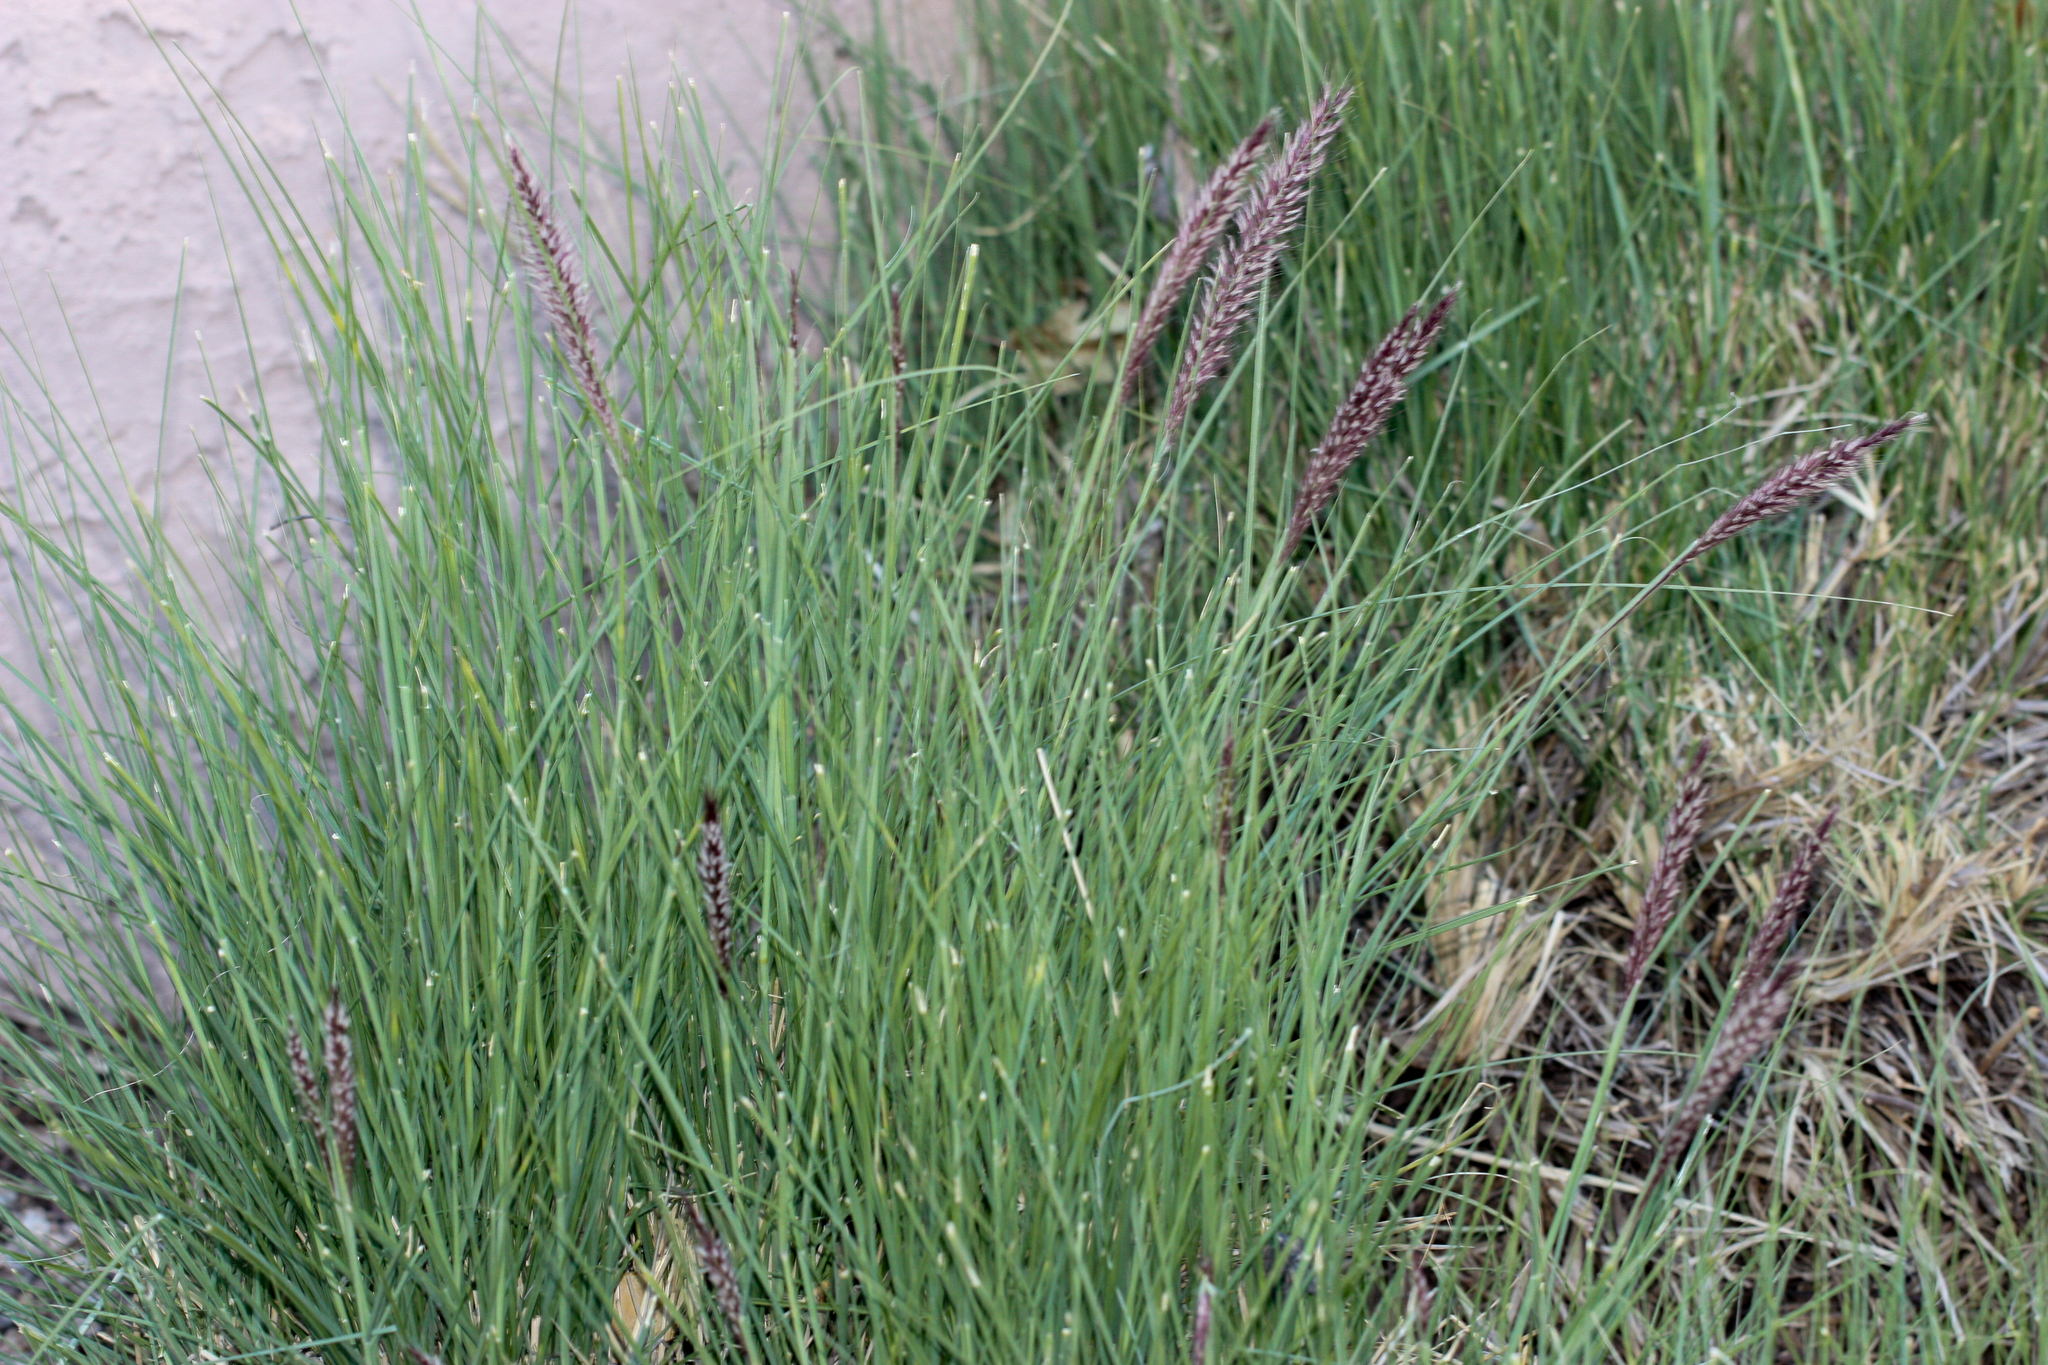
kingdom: Plantae
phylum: Tracheophyta
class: Liliopsida
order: Poales
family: Poaceae
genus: Cenchrus
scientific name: Cenchrus setaceus
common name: Crimson fountaingrass
